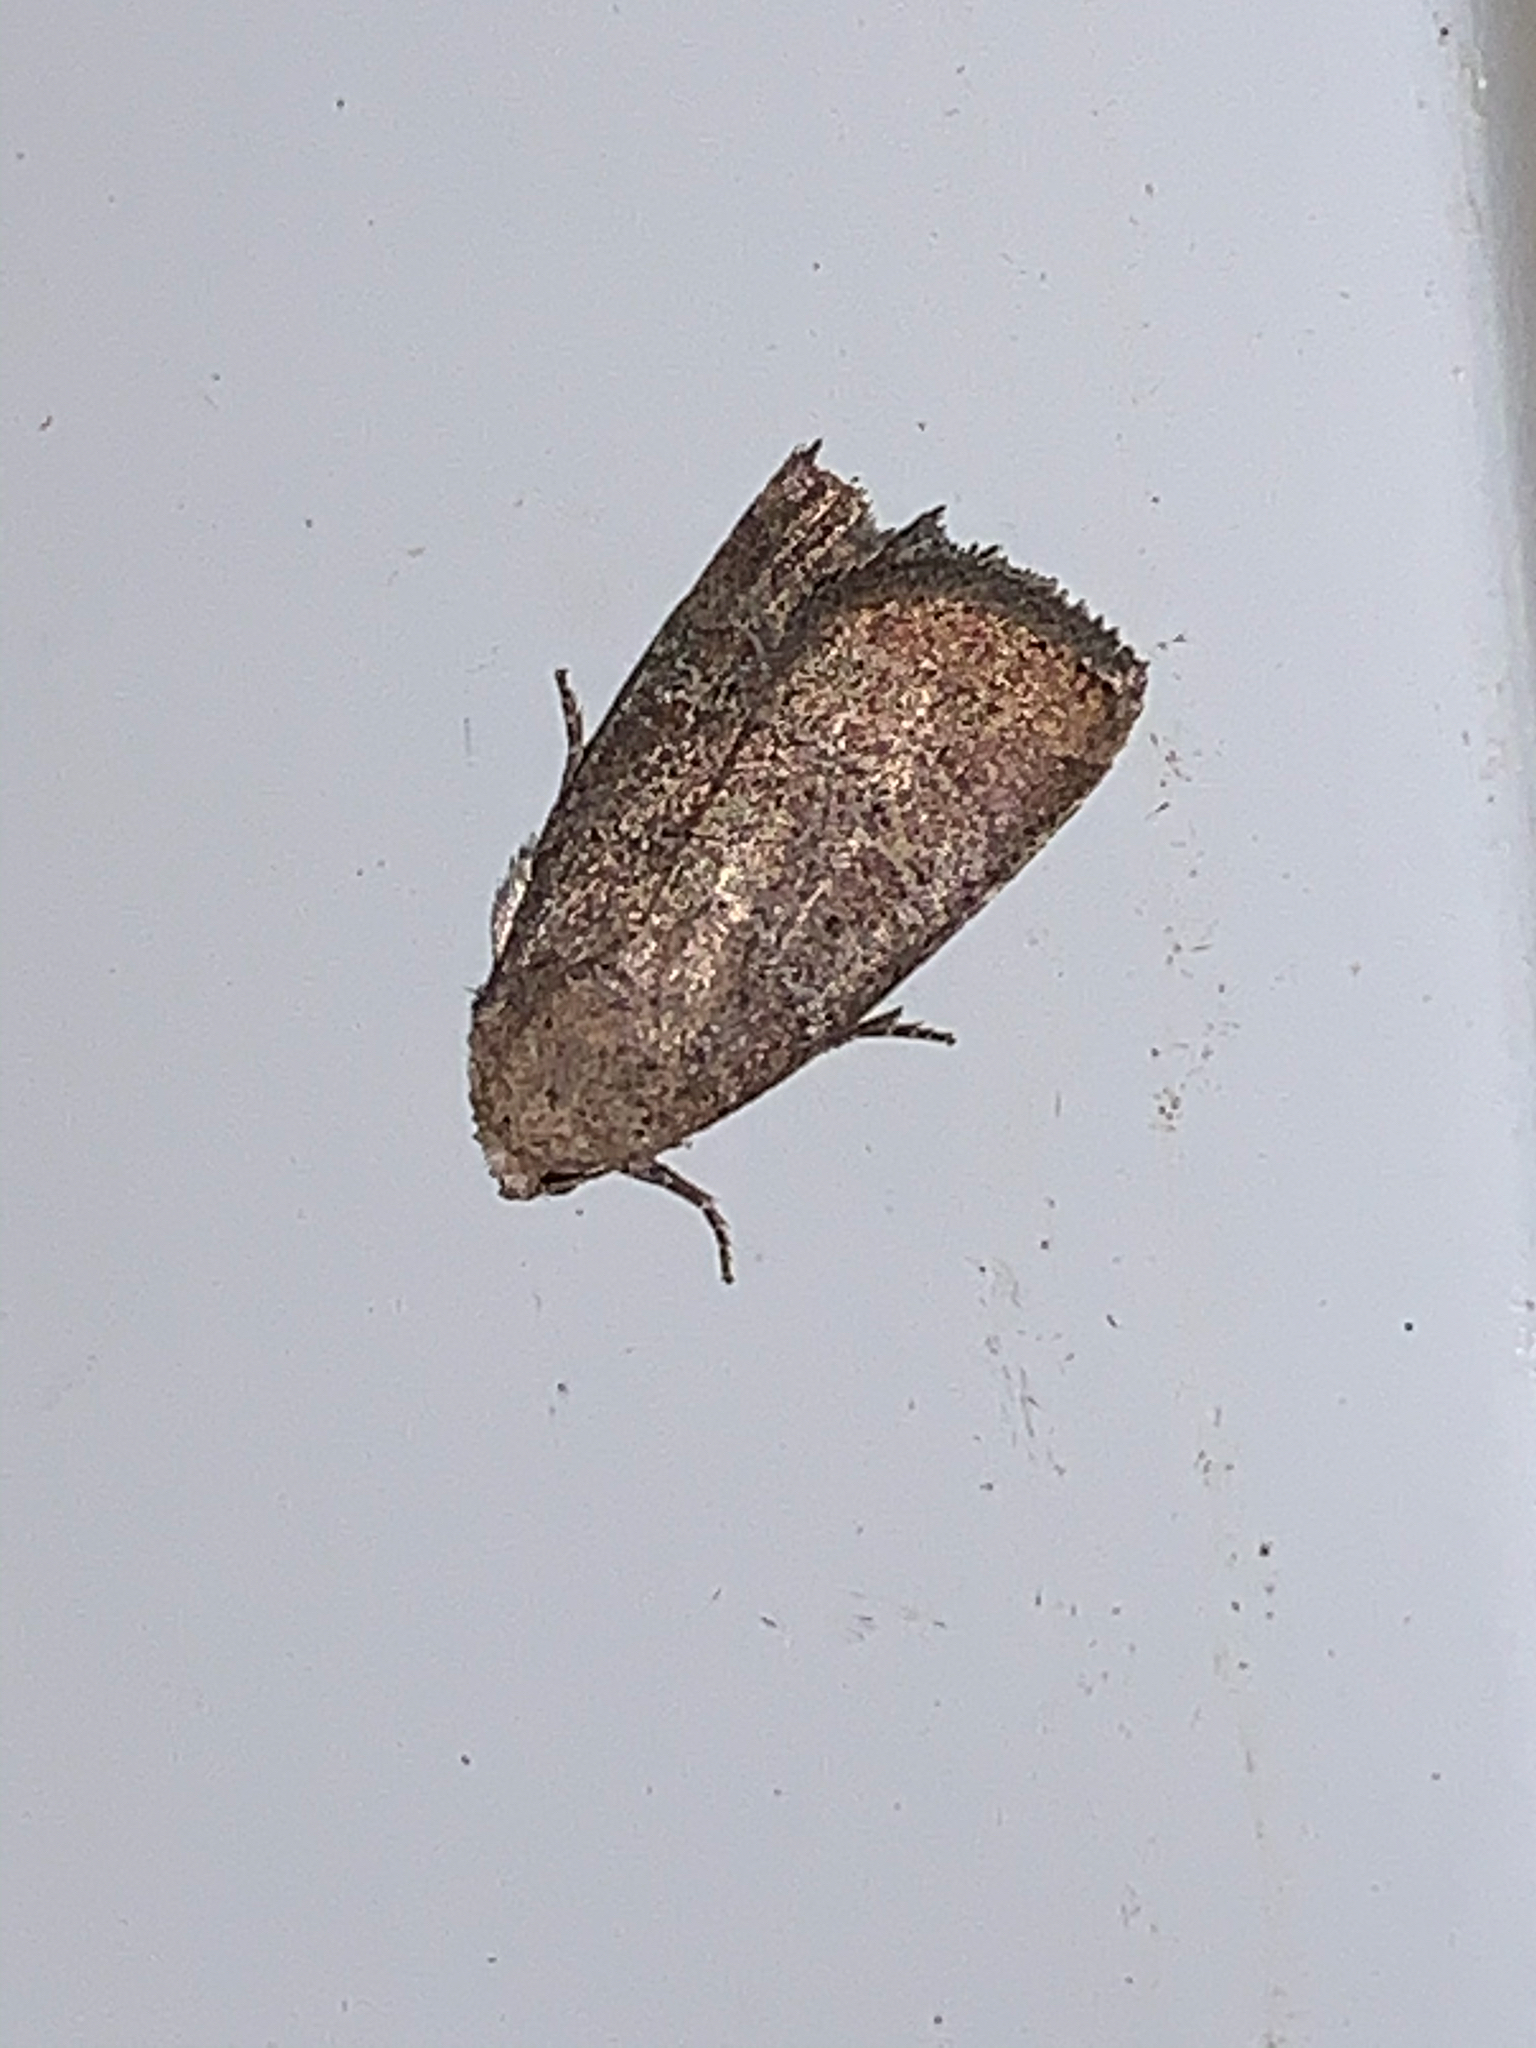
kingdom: Animalia
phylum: Arthropoda
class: Insecta
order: Lepidoptera
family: Noctuidae
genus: Elaphria
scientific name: Elaphria grata
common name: Grateful midget moth
